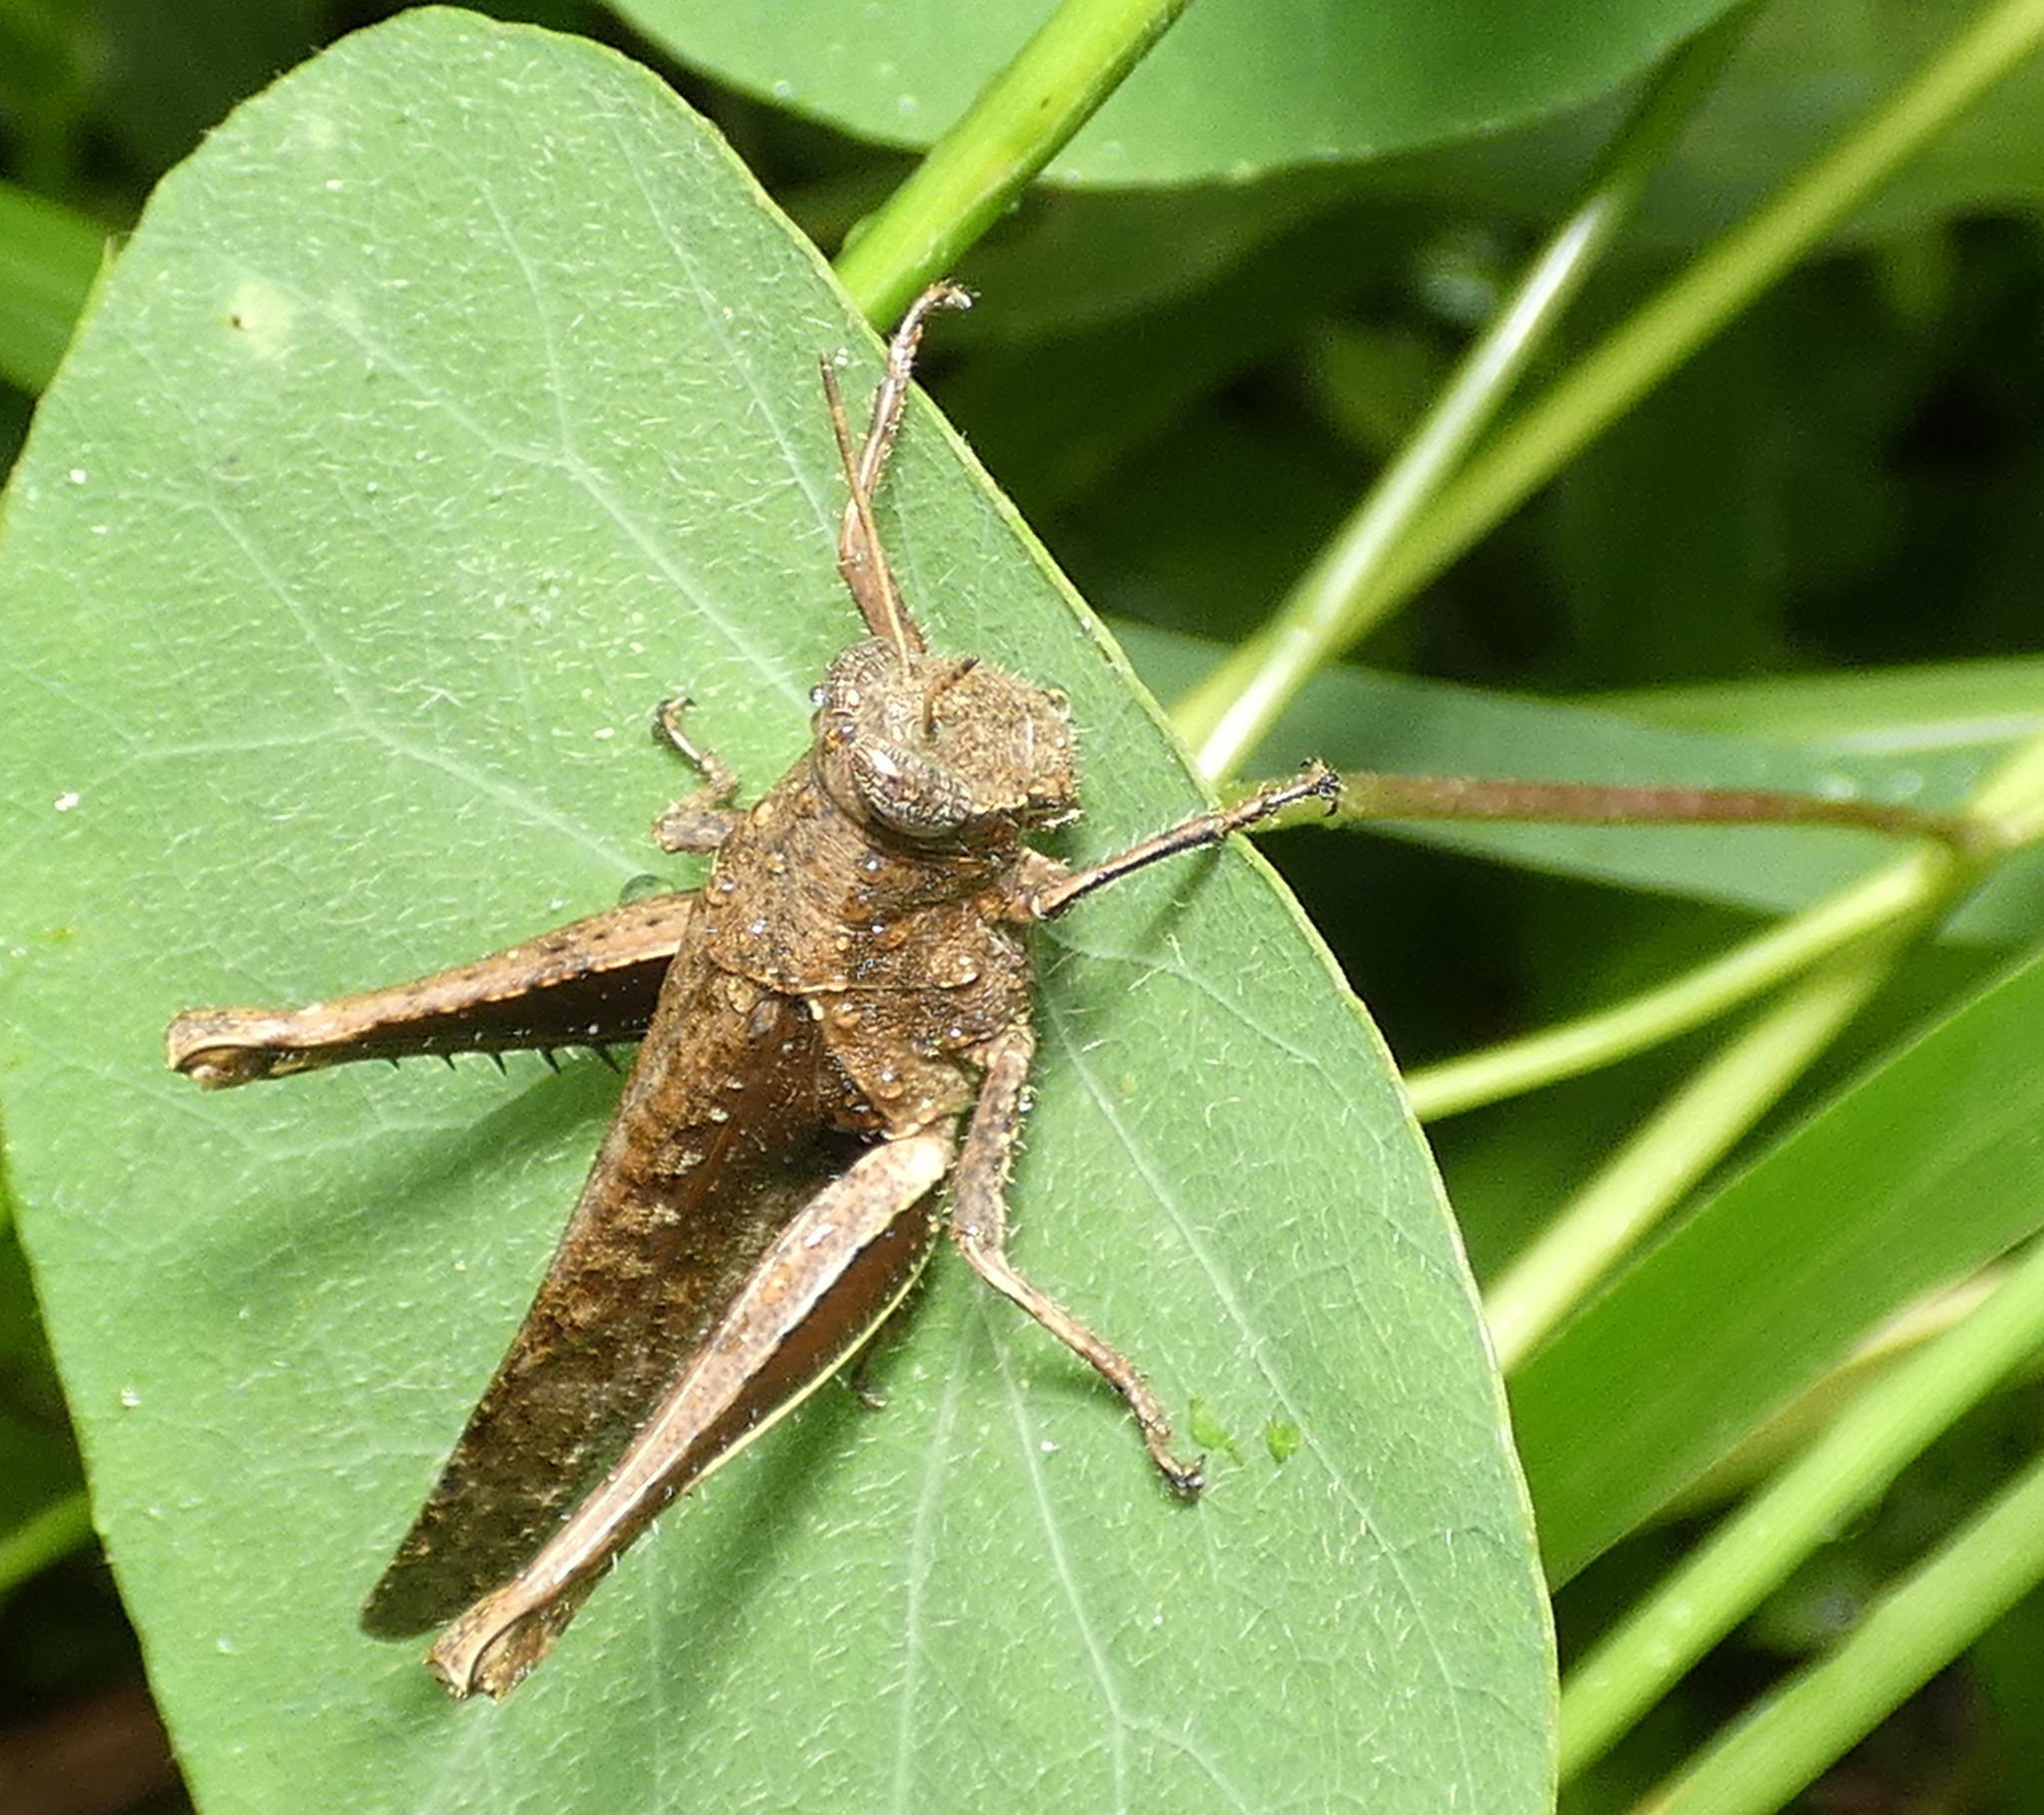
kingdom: Animalia
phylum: Arthropoda
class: Insecta
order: Orthoptera
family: Acrididae
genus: Abracris
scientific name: Abracris flavolineata
